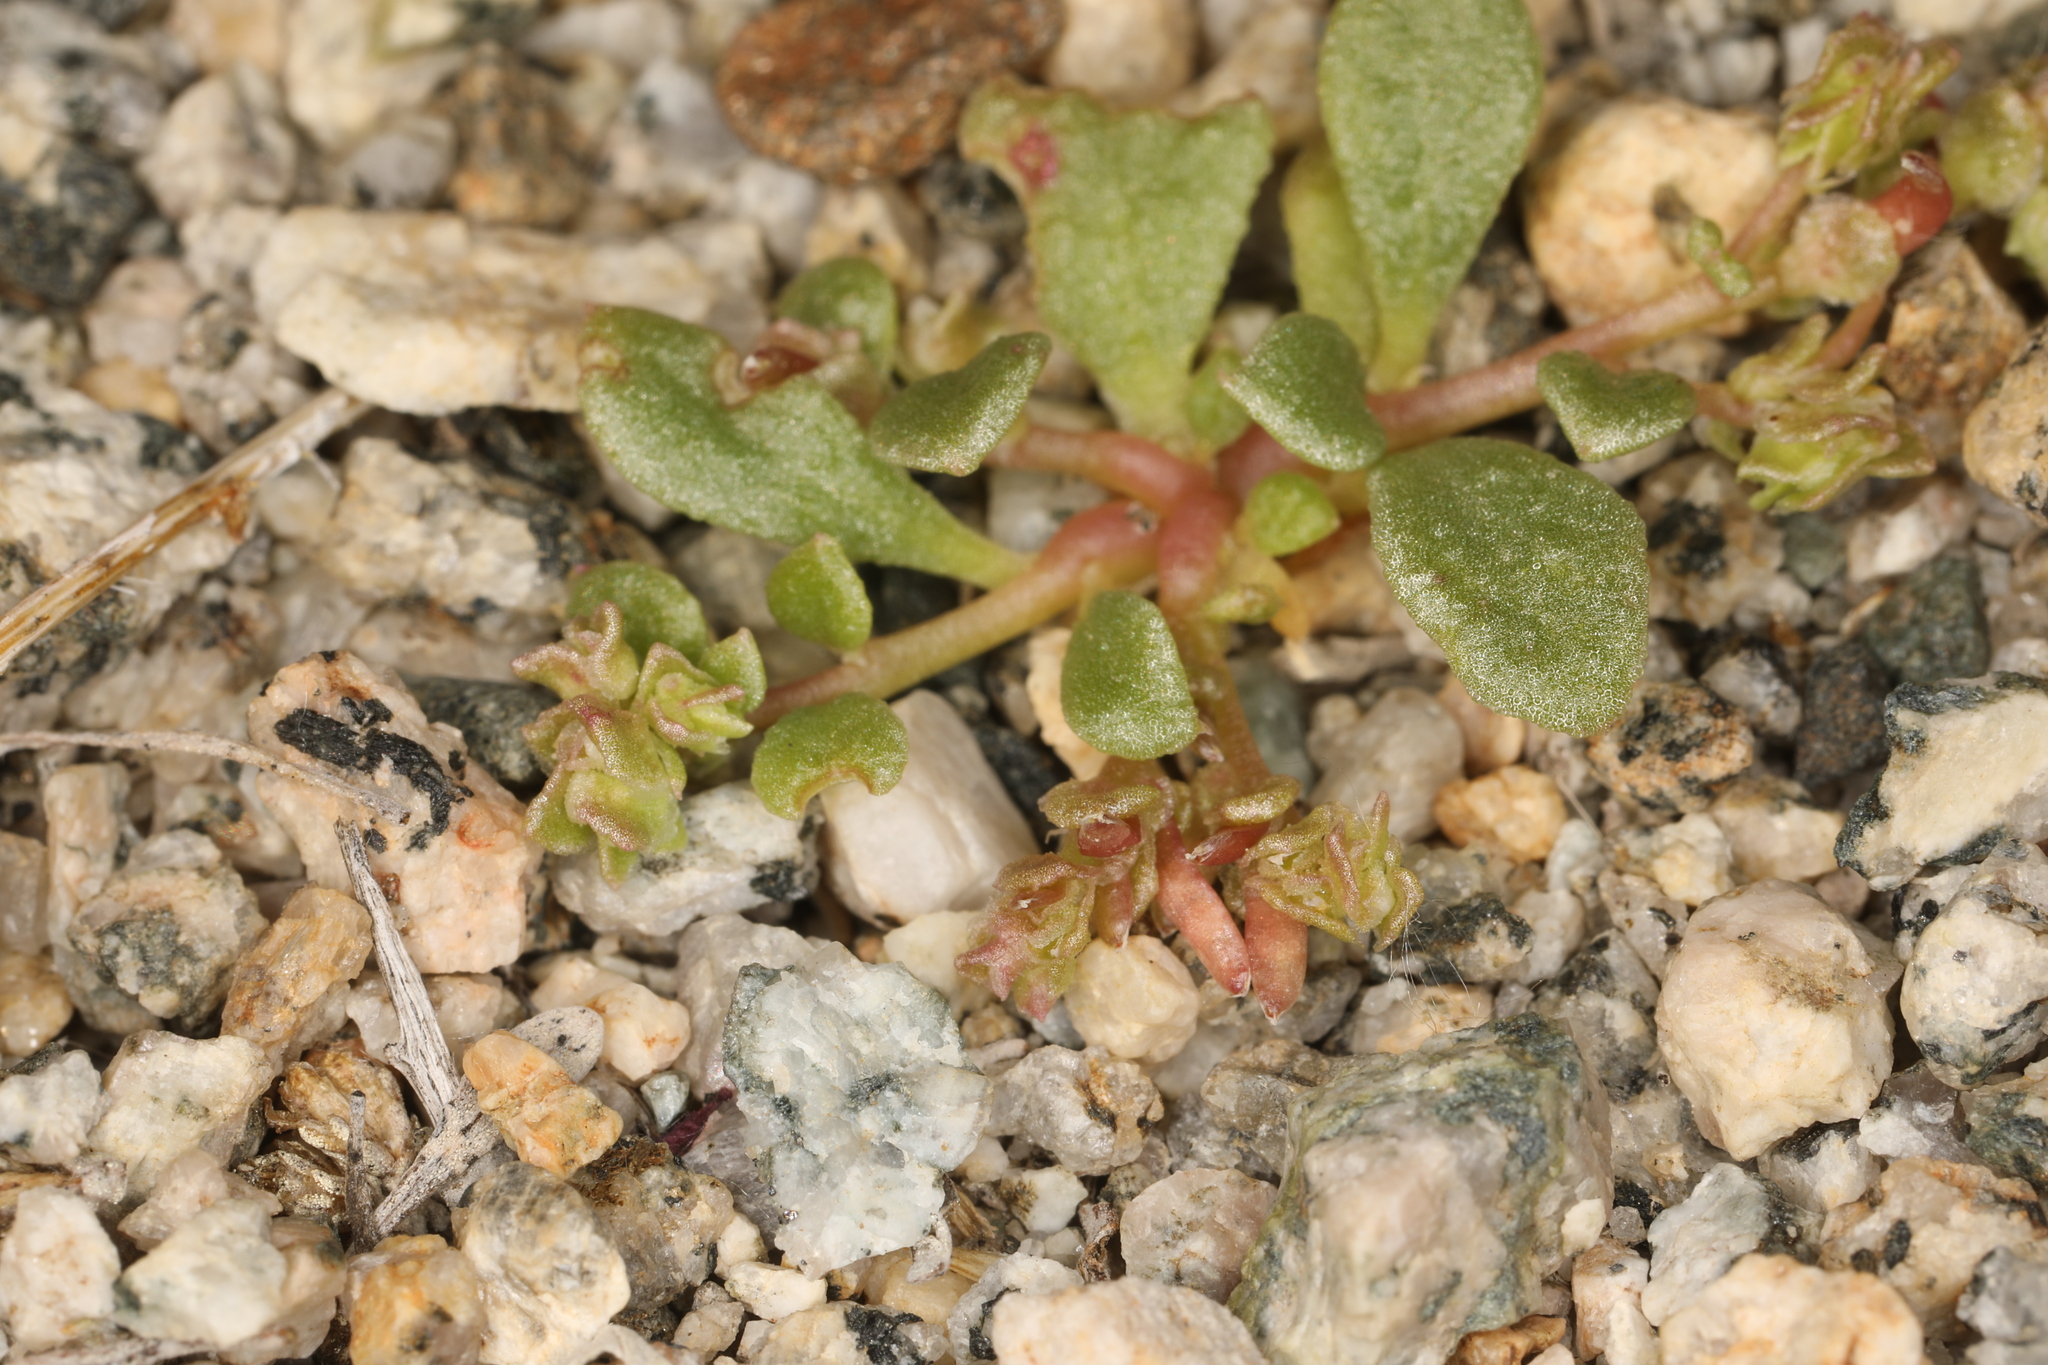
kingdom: Plantae
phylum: Tracheophyta
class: Magnoliopsida
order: Caryophyllales
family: Montiaceae
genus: Calyptridium
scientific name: Calyptridium monandrum
